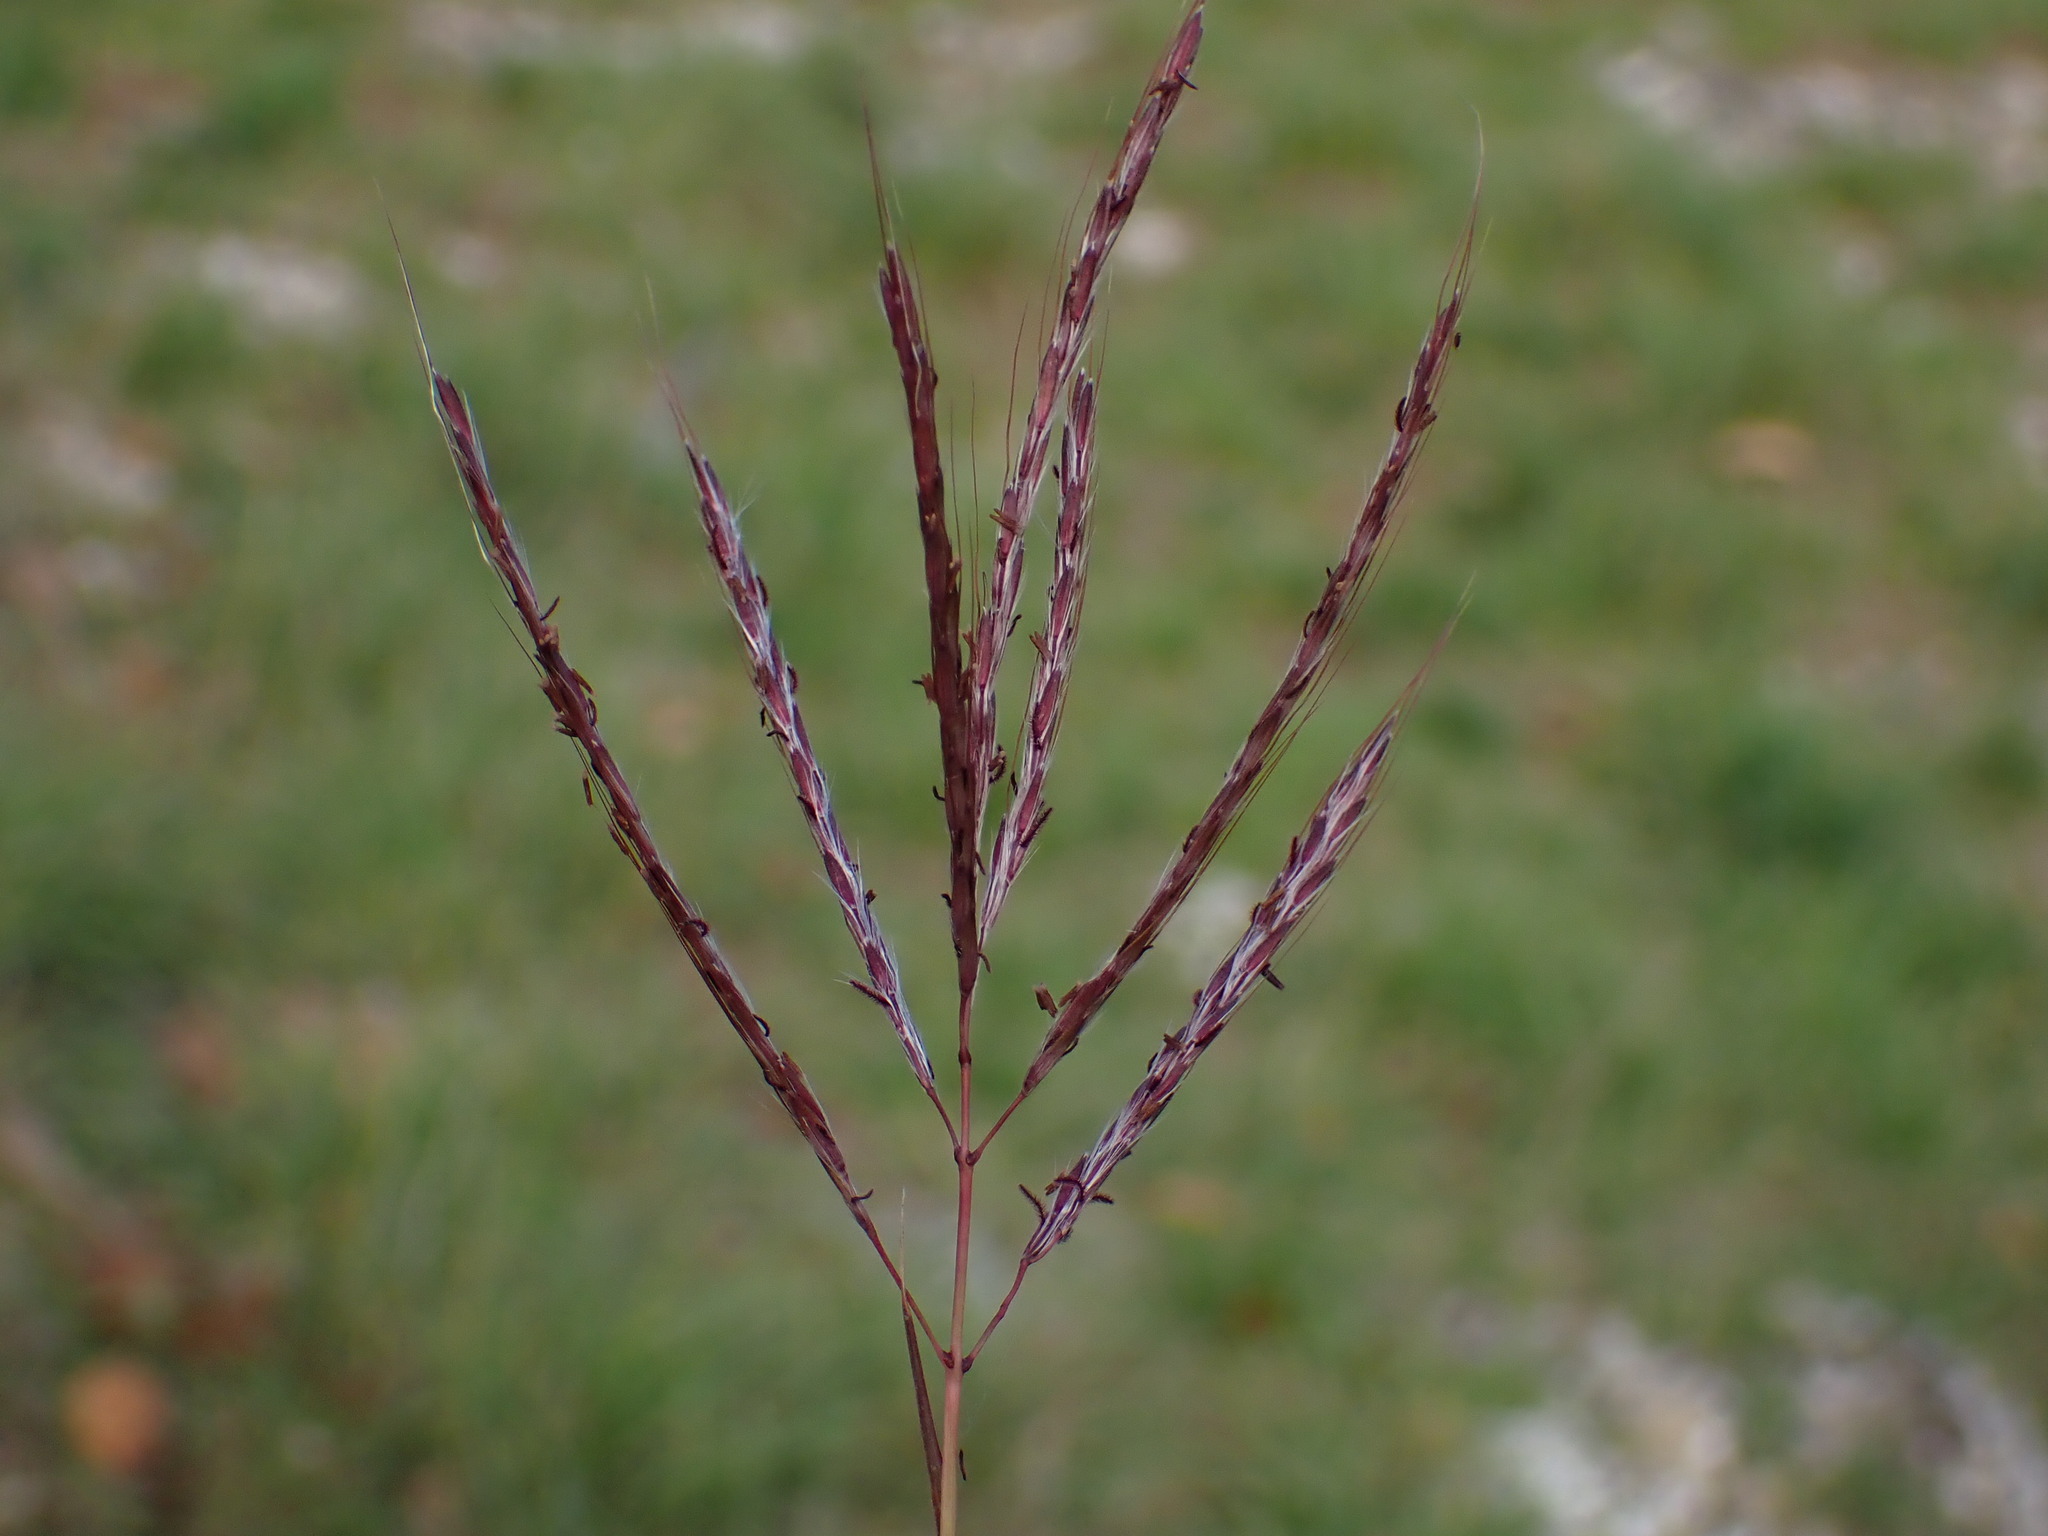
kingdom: Plantae
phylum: Tracheophyta
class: Liliopsida
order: Poales
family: Poaceae
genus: Bothriochloa
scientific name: Bothriochloa ischaemum
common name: Yellow bluestem
